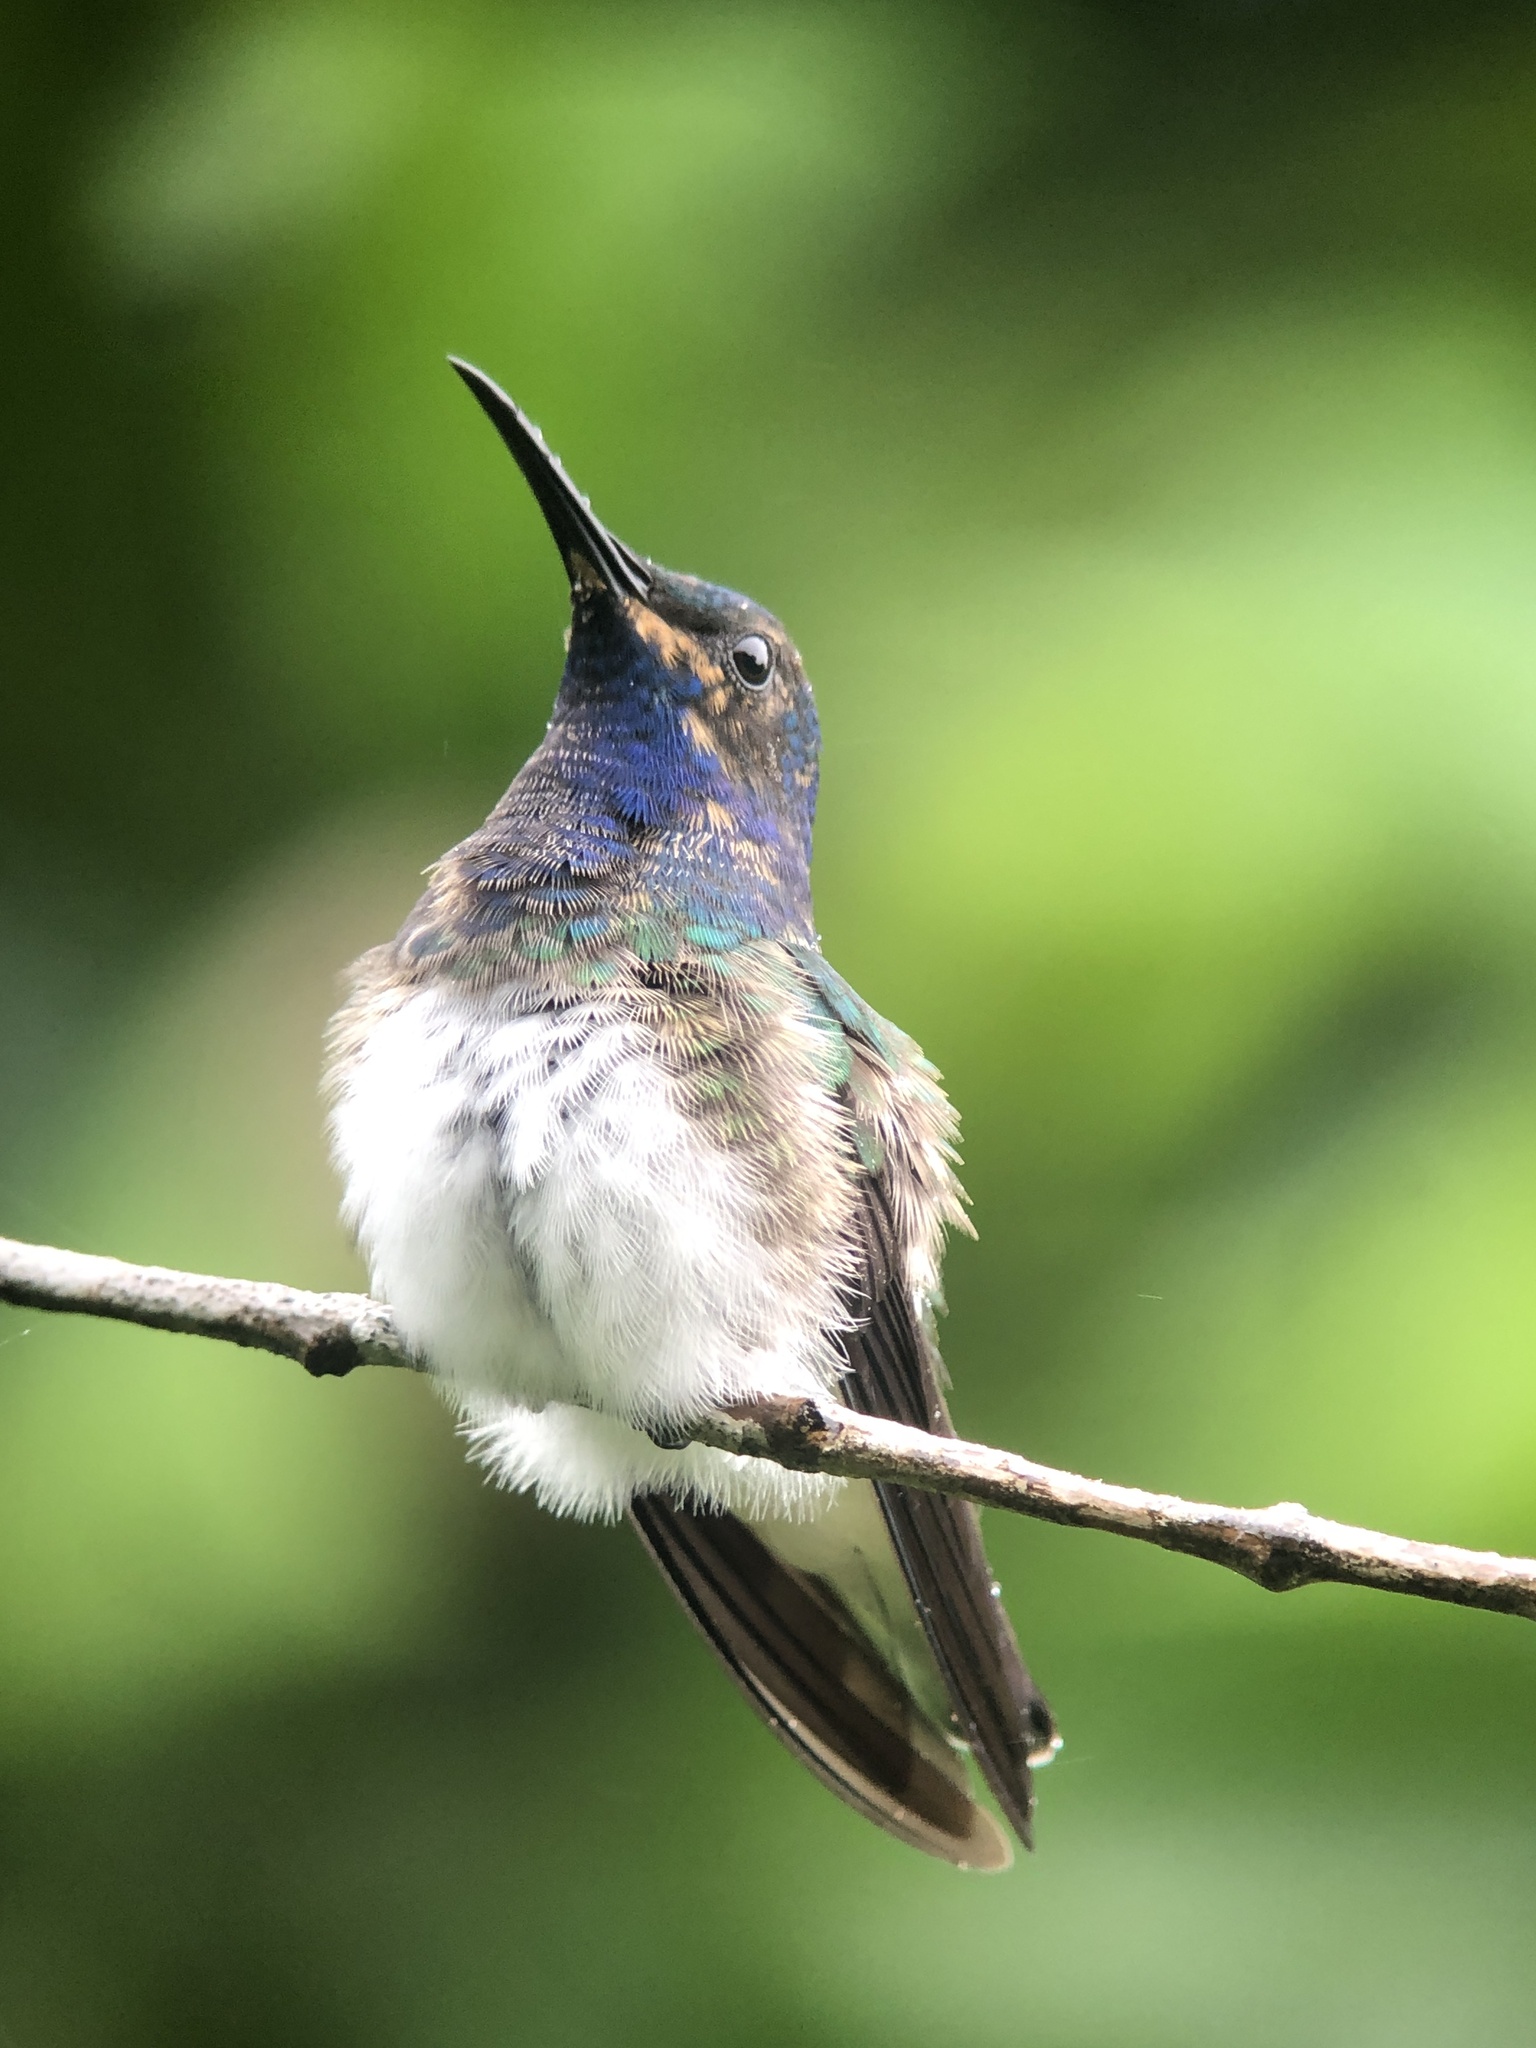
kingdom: Animalia
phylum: Chordata
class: Aves
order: Apodiformes
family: Trochilidae
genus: Florisuga
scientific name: Florisuga mellivora
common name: White-necked jacobin
